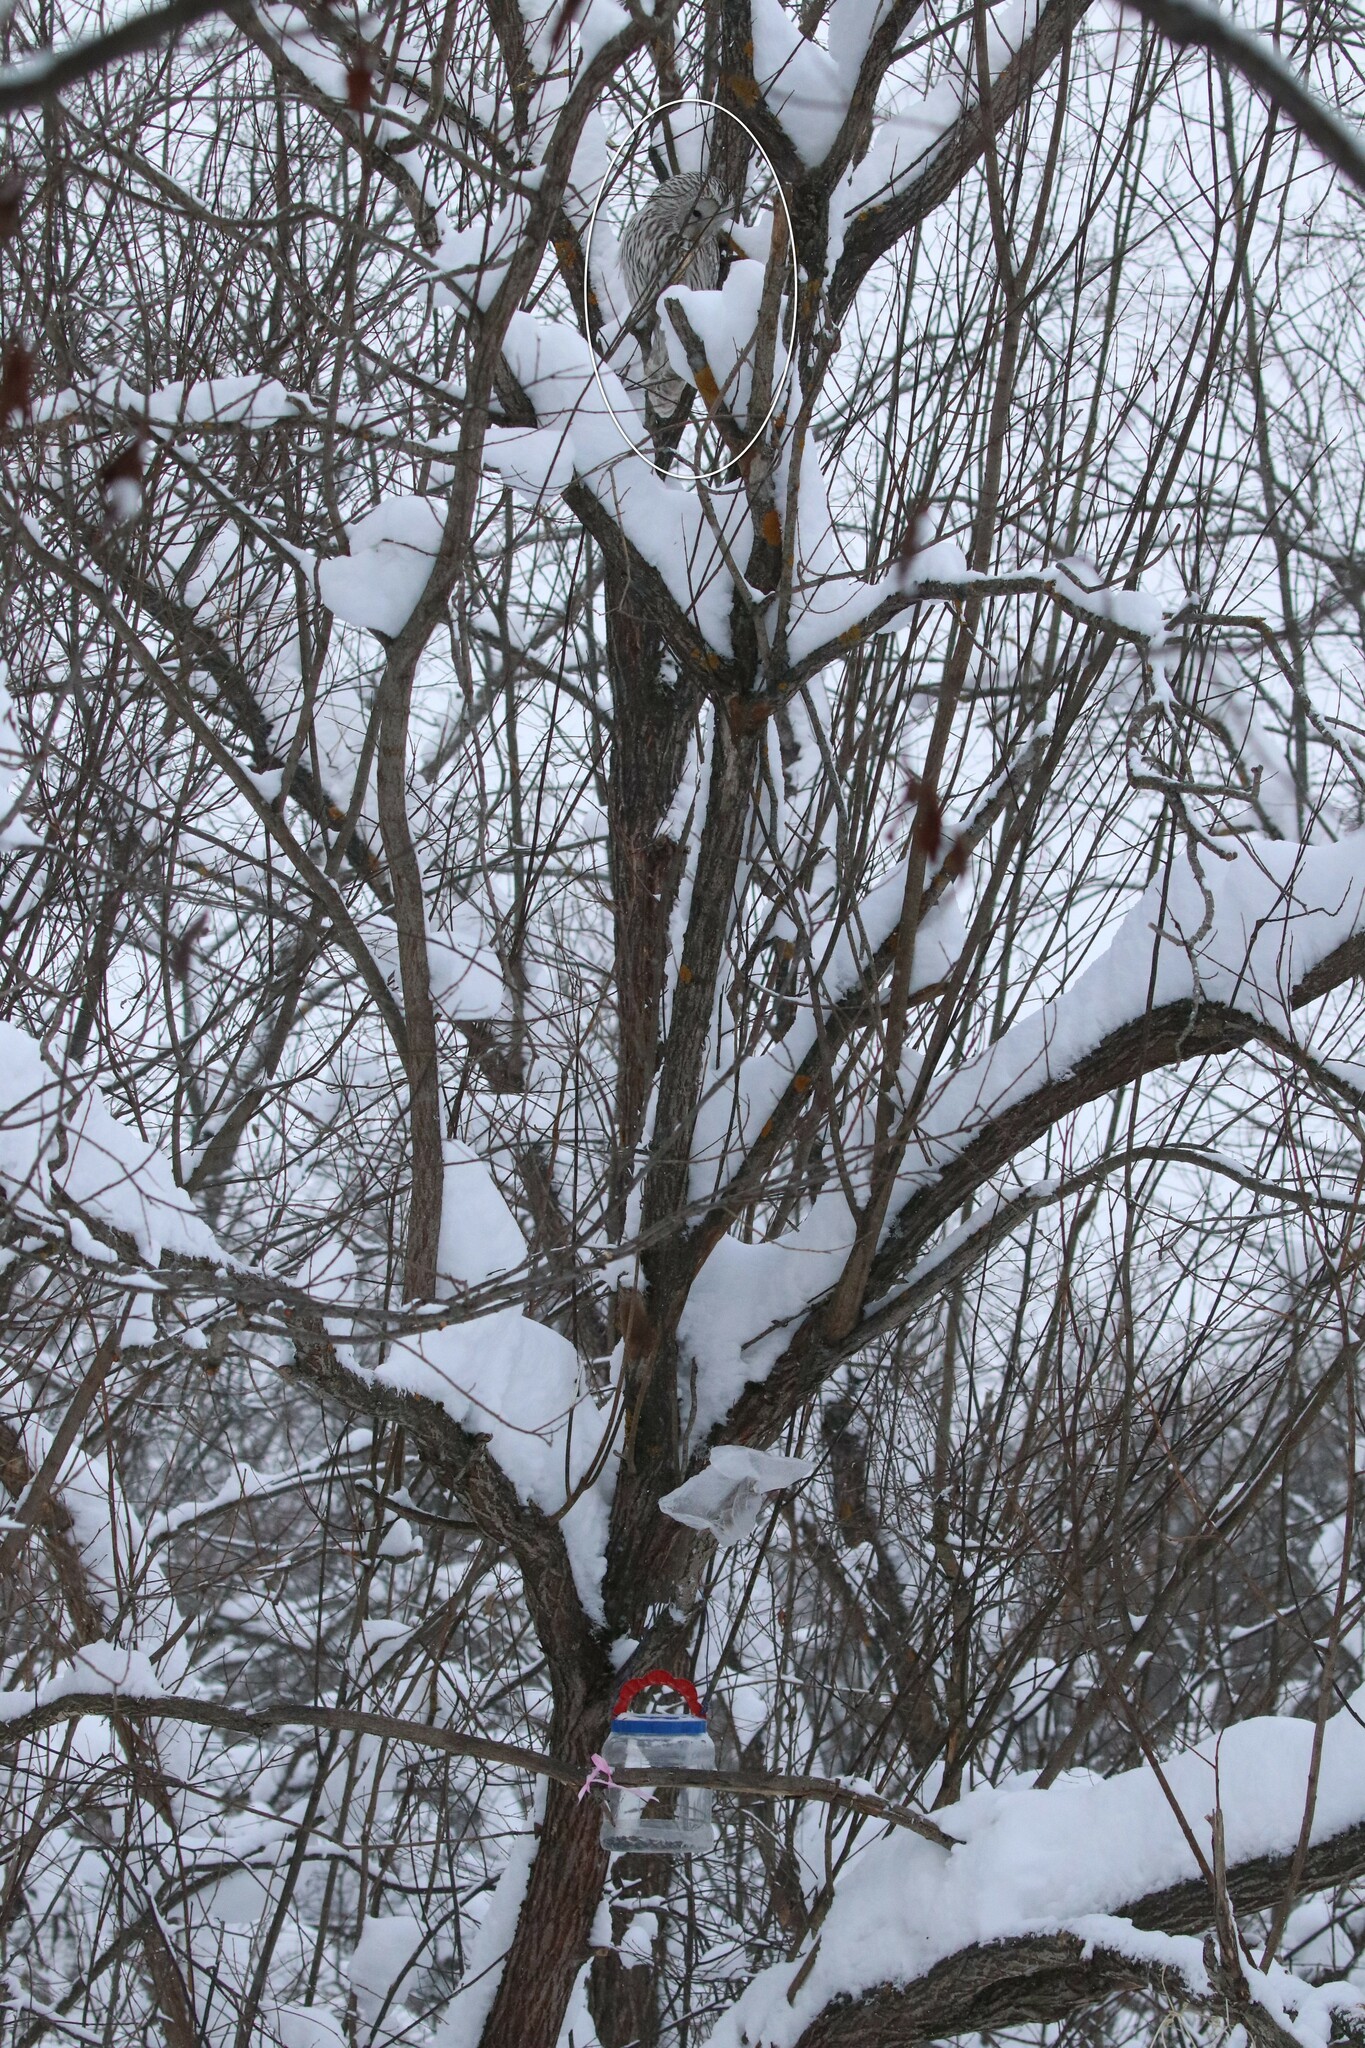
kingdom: Animalia
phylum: Chordata
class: Aves
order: Strigiformes
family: Strigidae
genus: Strix
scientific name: Strix uralensis
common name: Ural owl
